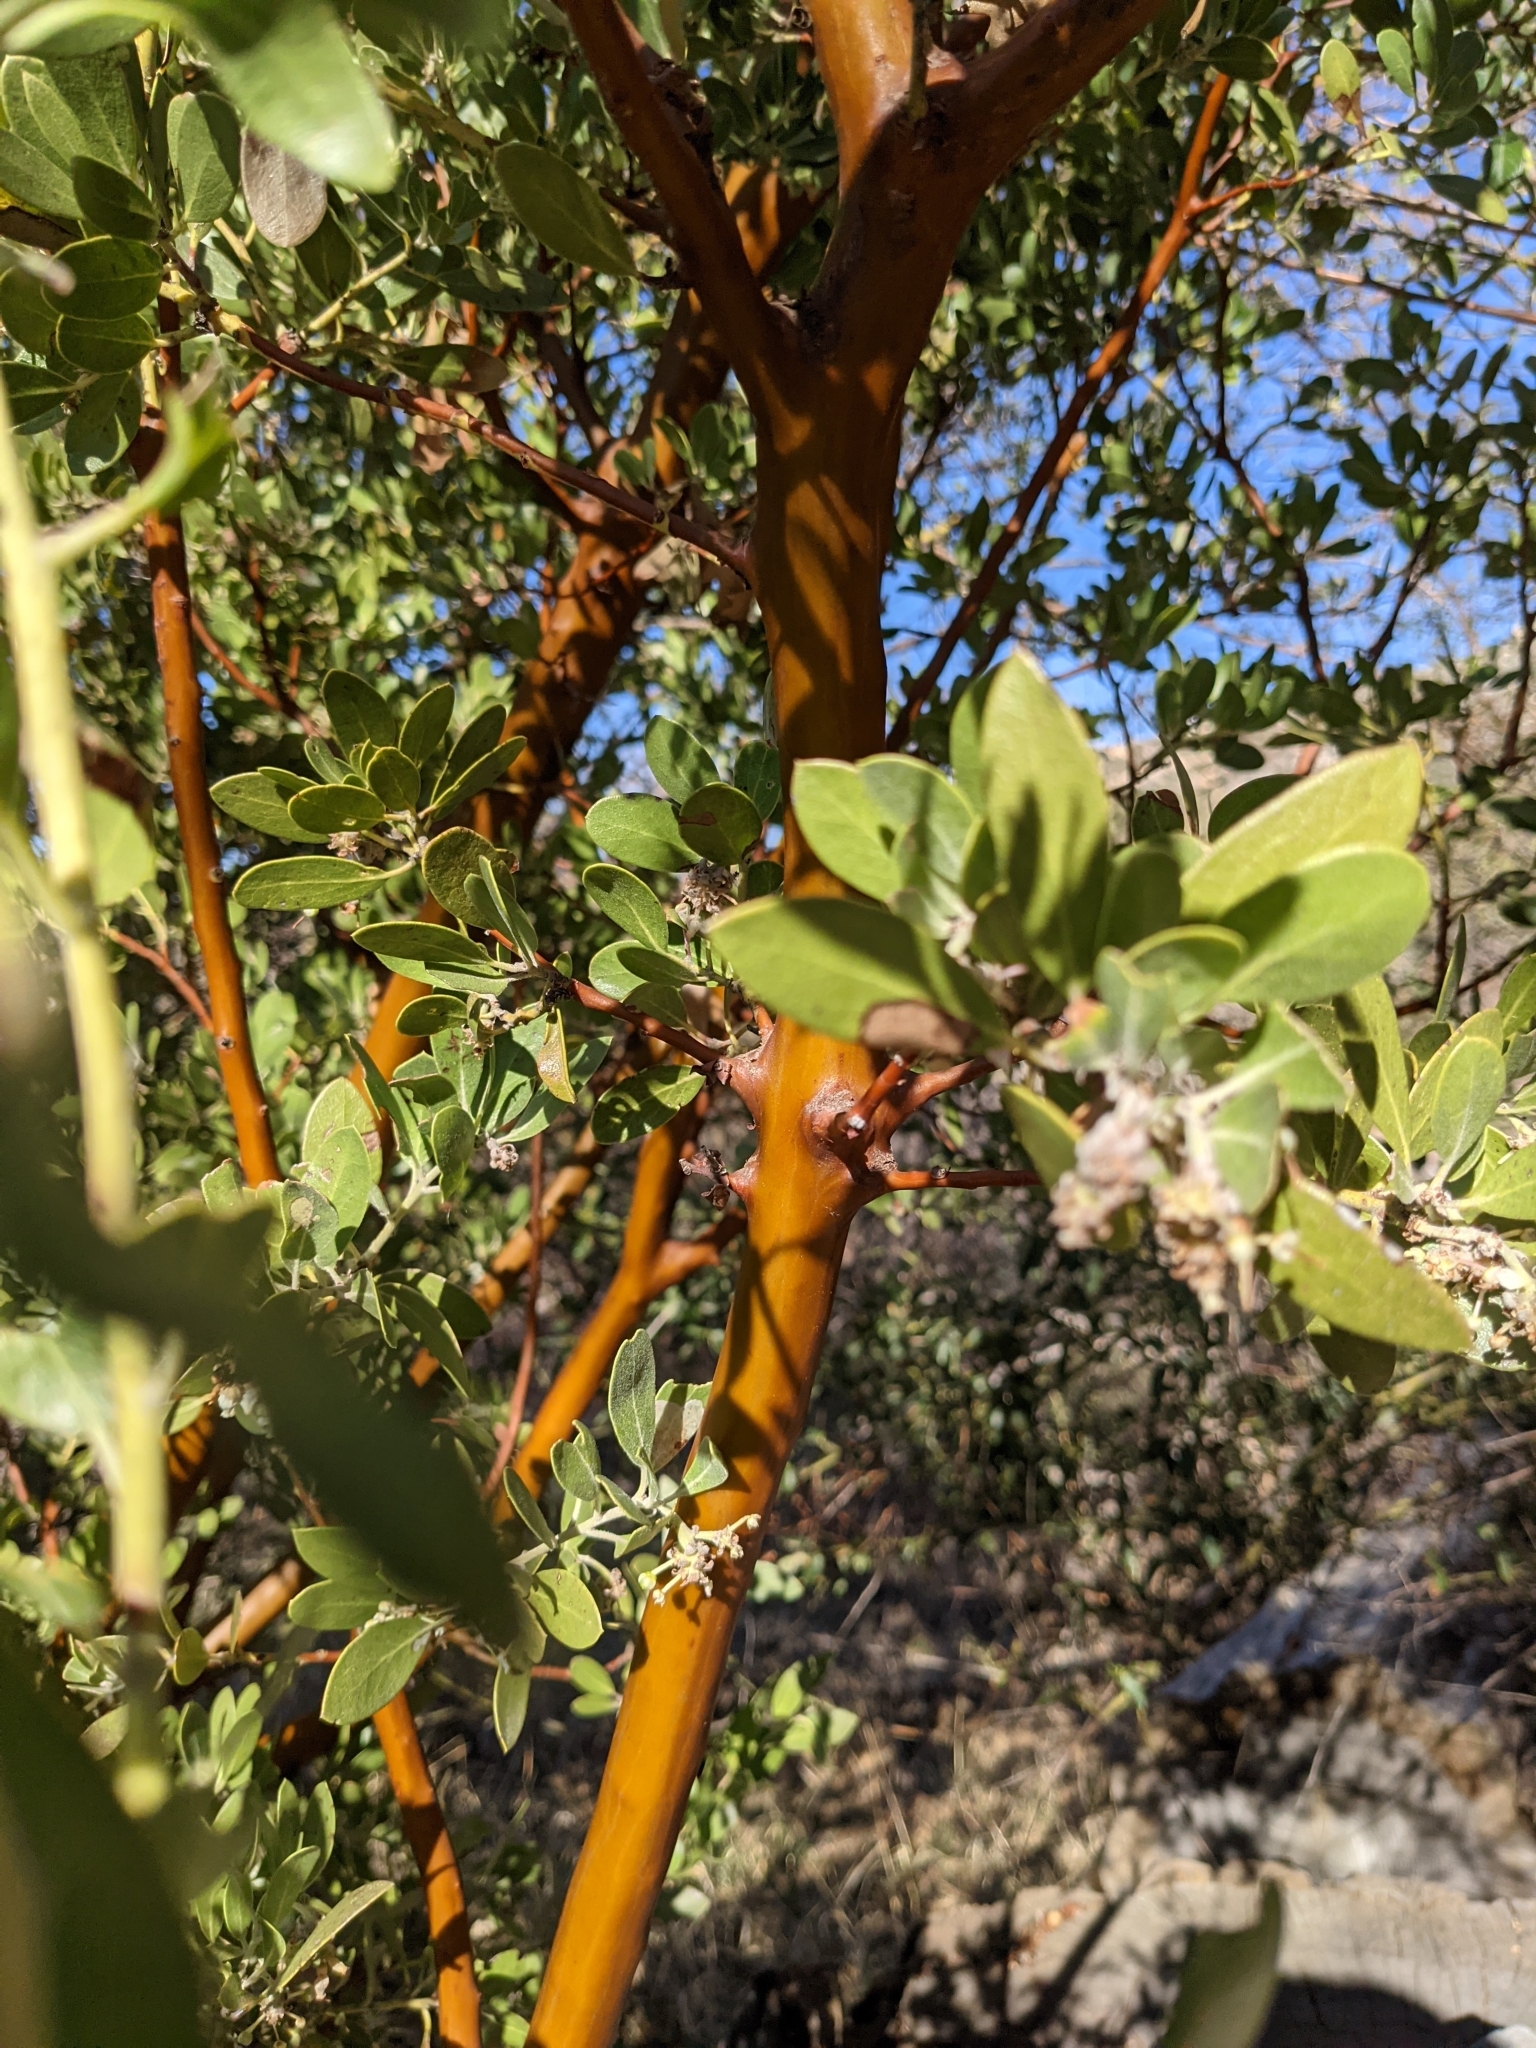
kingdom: Plantae
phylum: Tracheophyta
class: Magnoliopsida
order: Ericales
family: Ericaceae
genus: Arctostaphylos
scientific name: Arctostaphylos pungens
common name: Mexican manzanita
